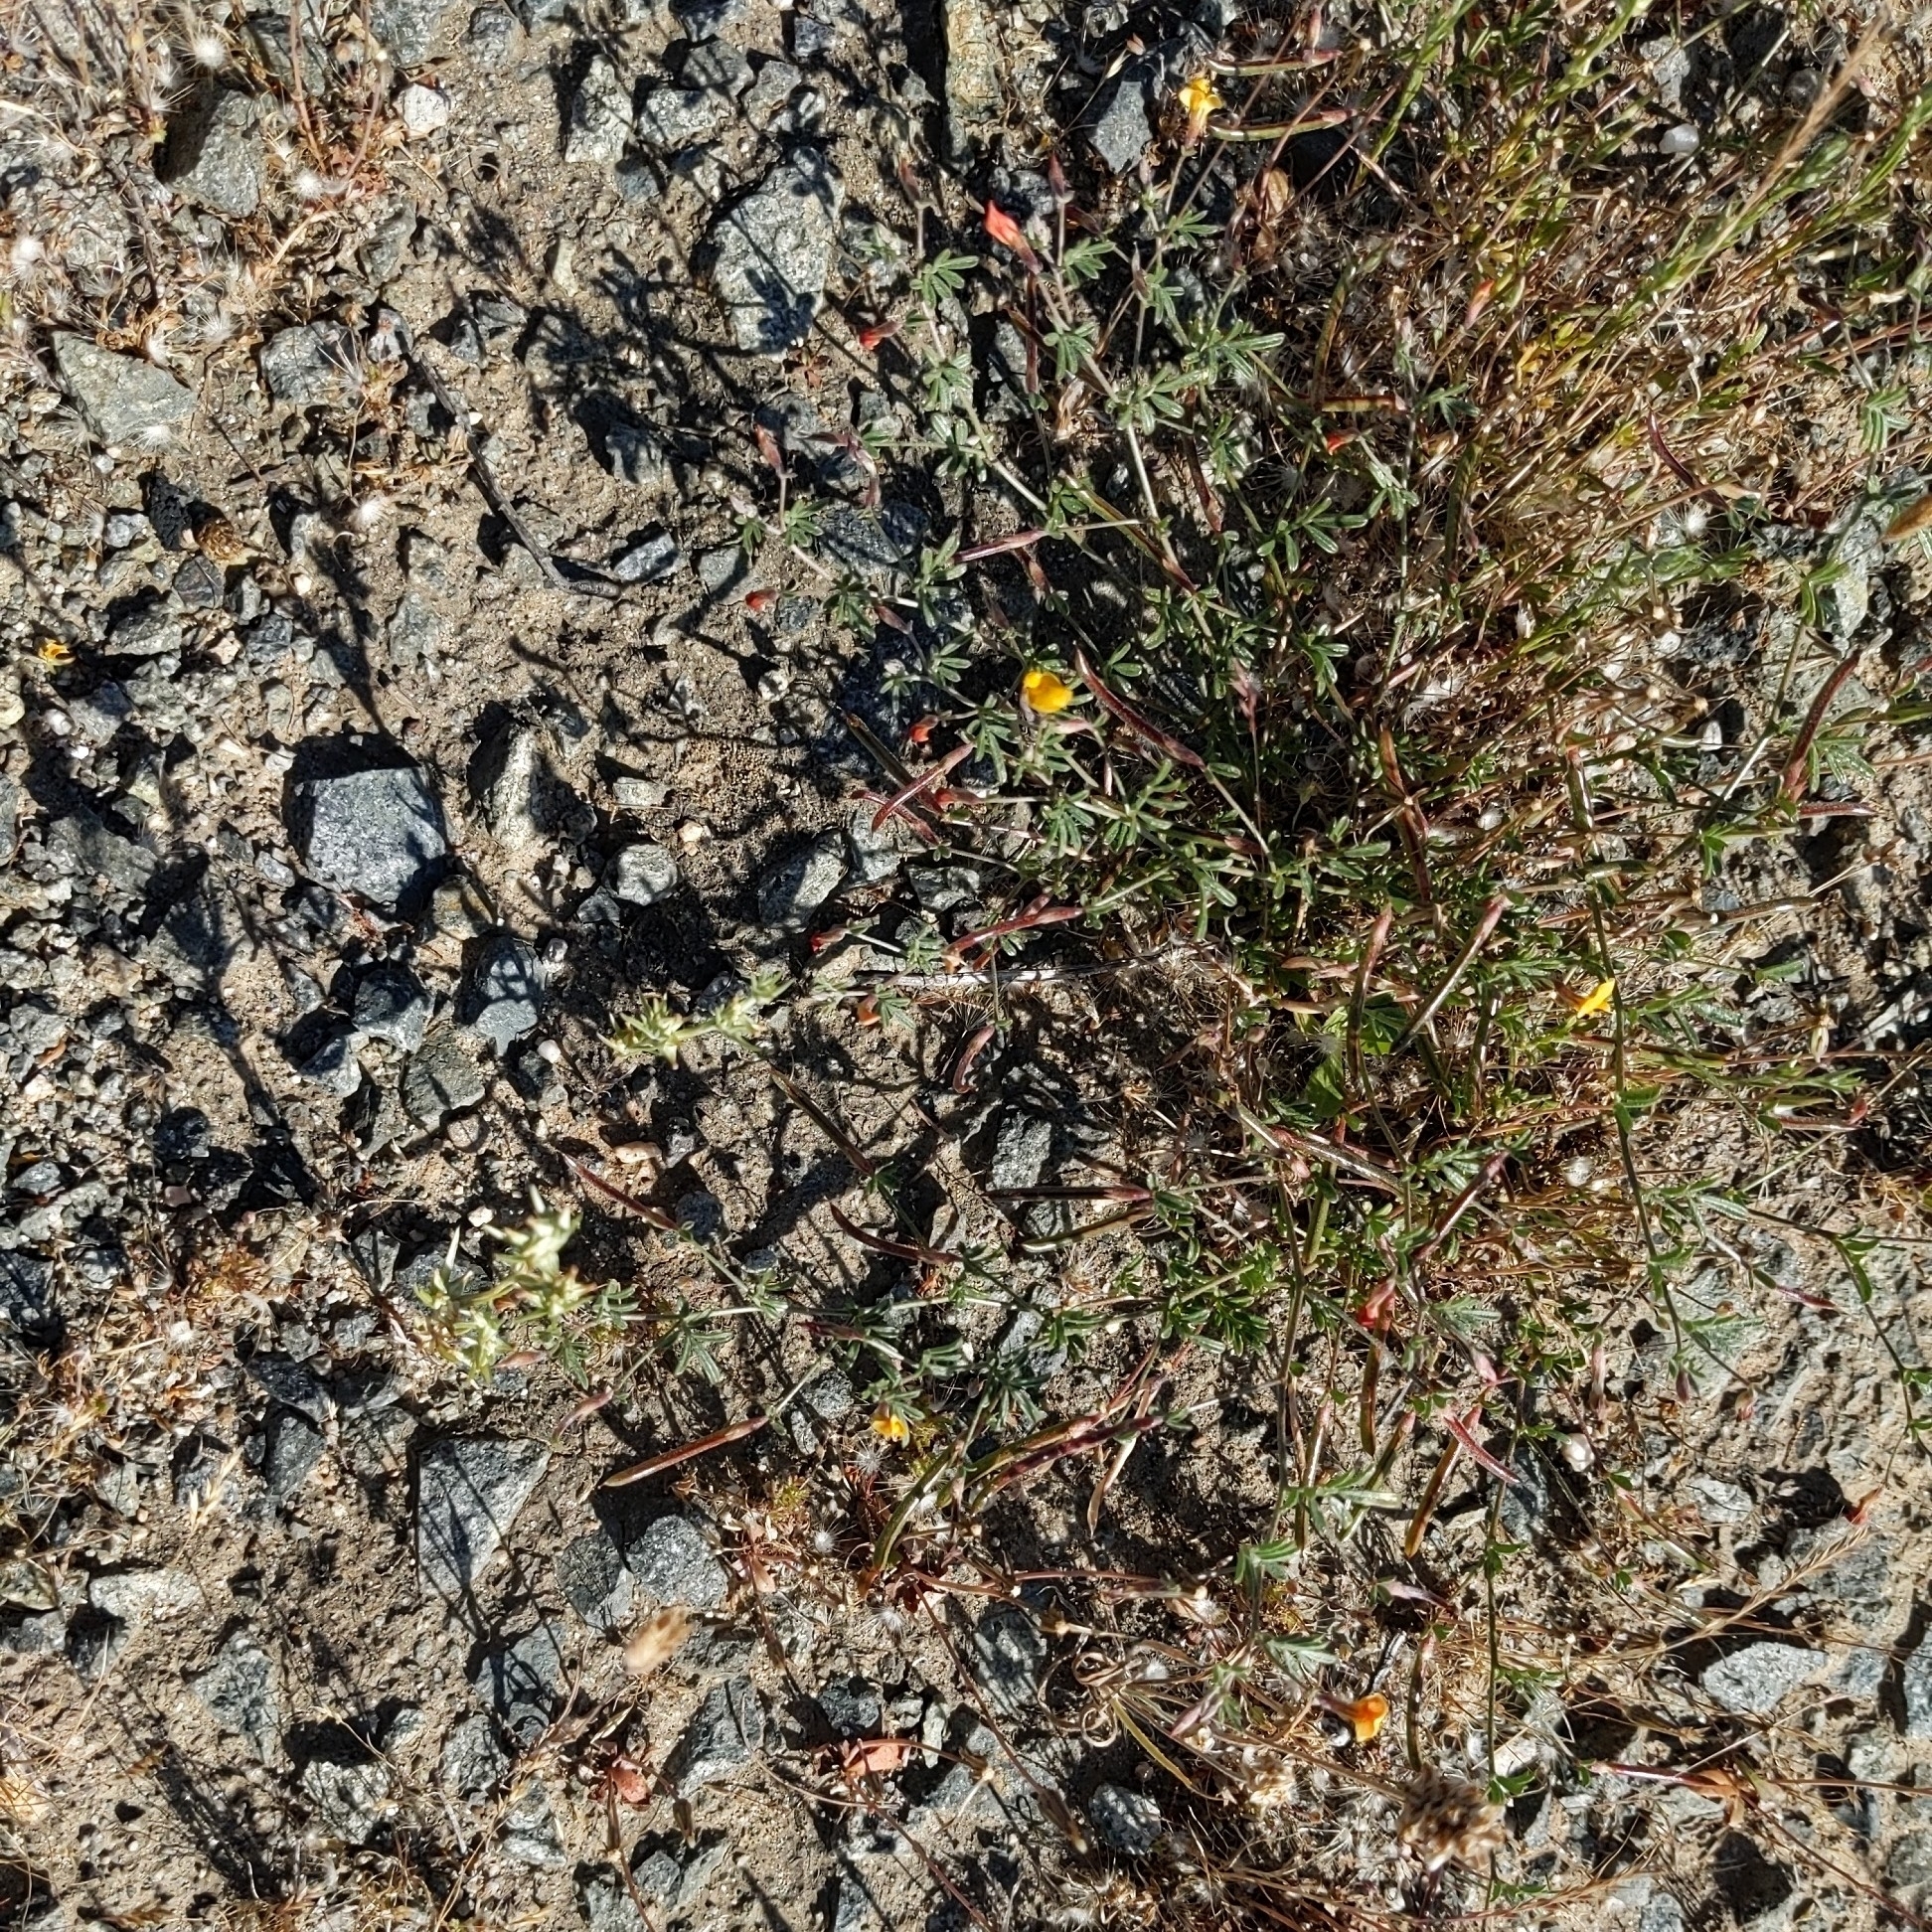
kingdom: Plantae
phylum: Tracheophyta
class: Magnoliopsida
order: Fabales
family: Fabaceae
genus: Acmispon
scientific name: Acmispon strigosus
